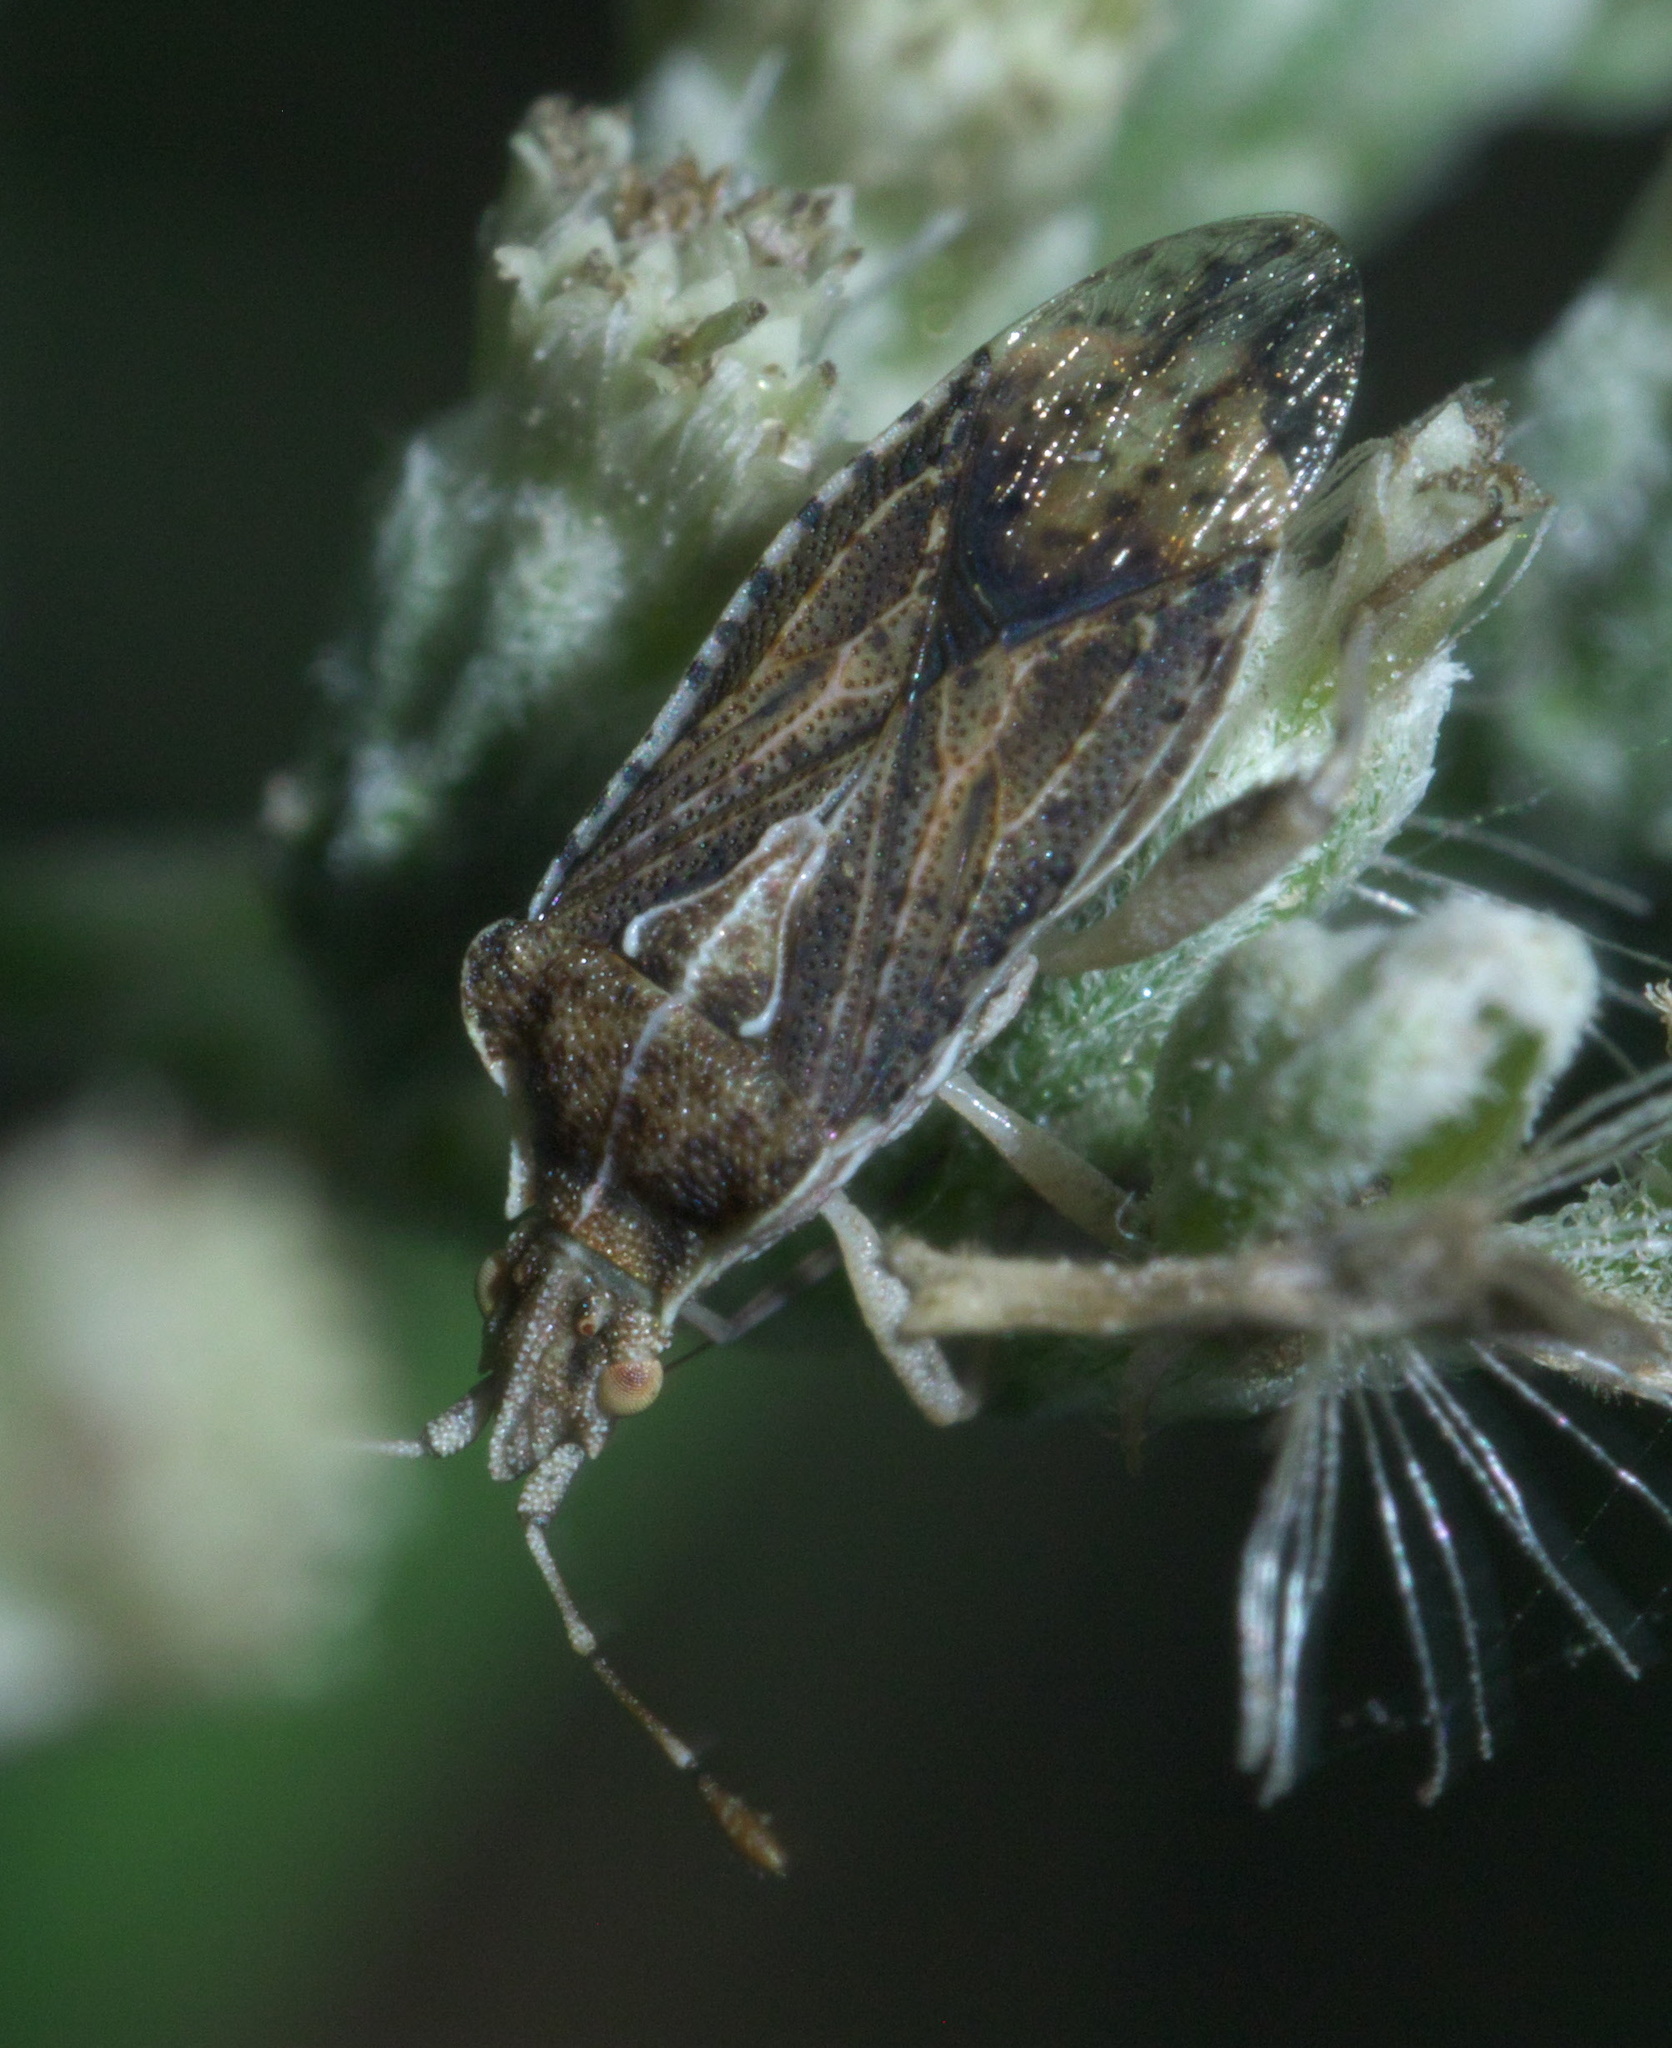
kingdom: Animalia
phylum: Arthropoda
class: Insecta
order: Hemiptera
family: Rhopalidae
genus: Harmostes
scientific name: Harmostes fraterculus
